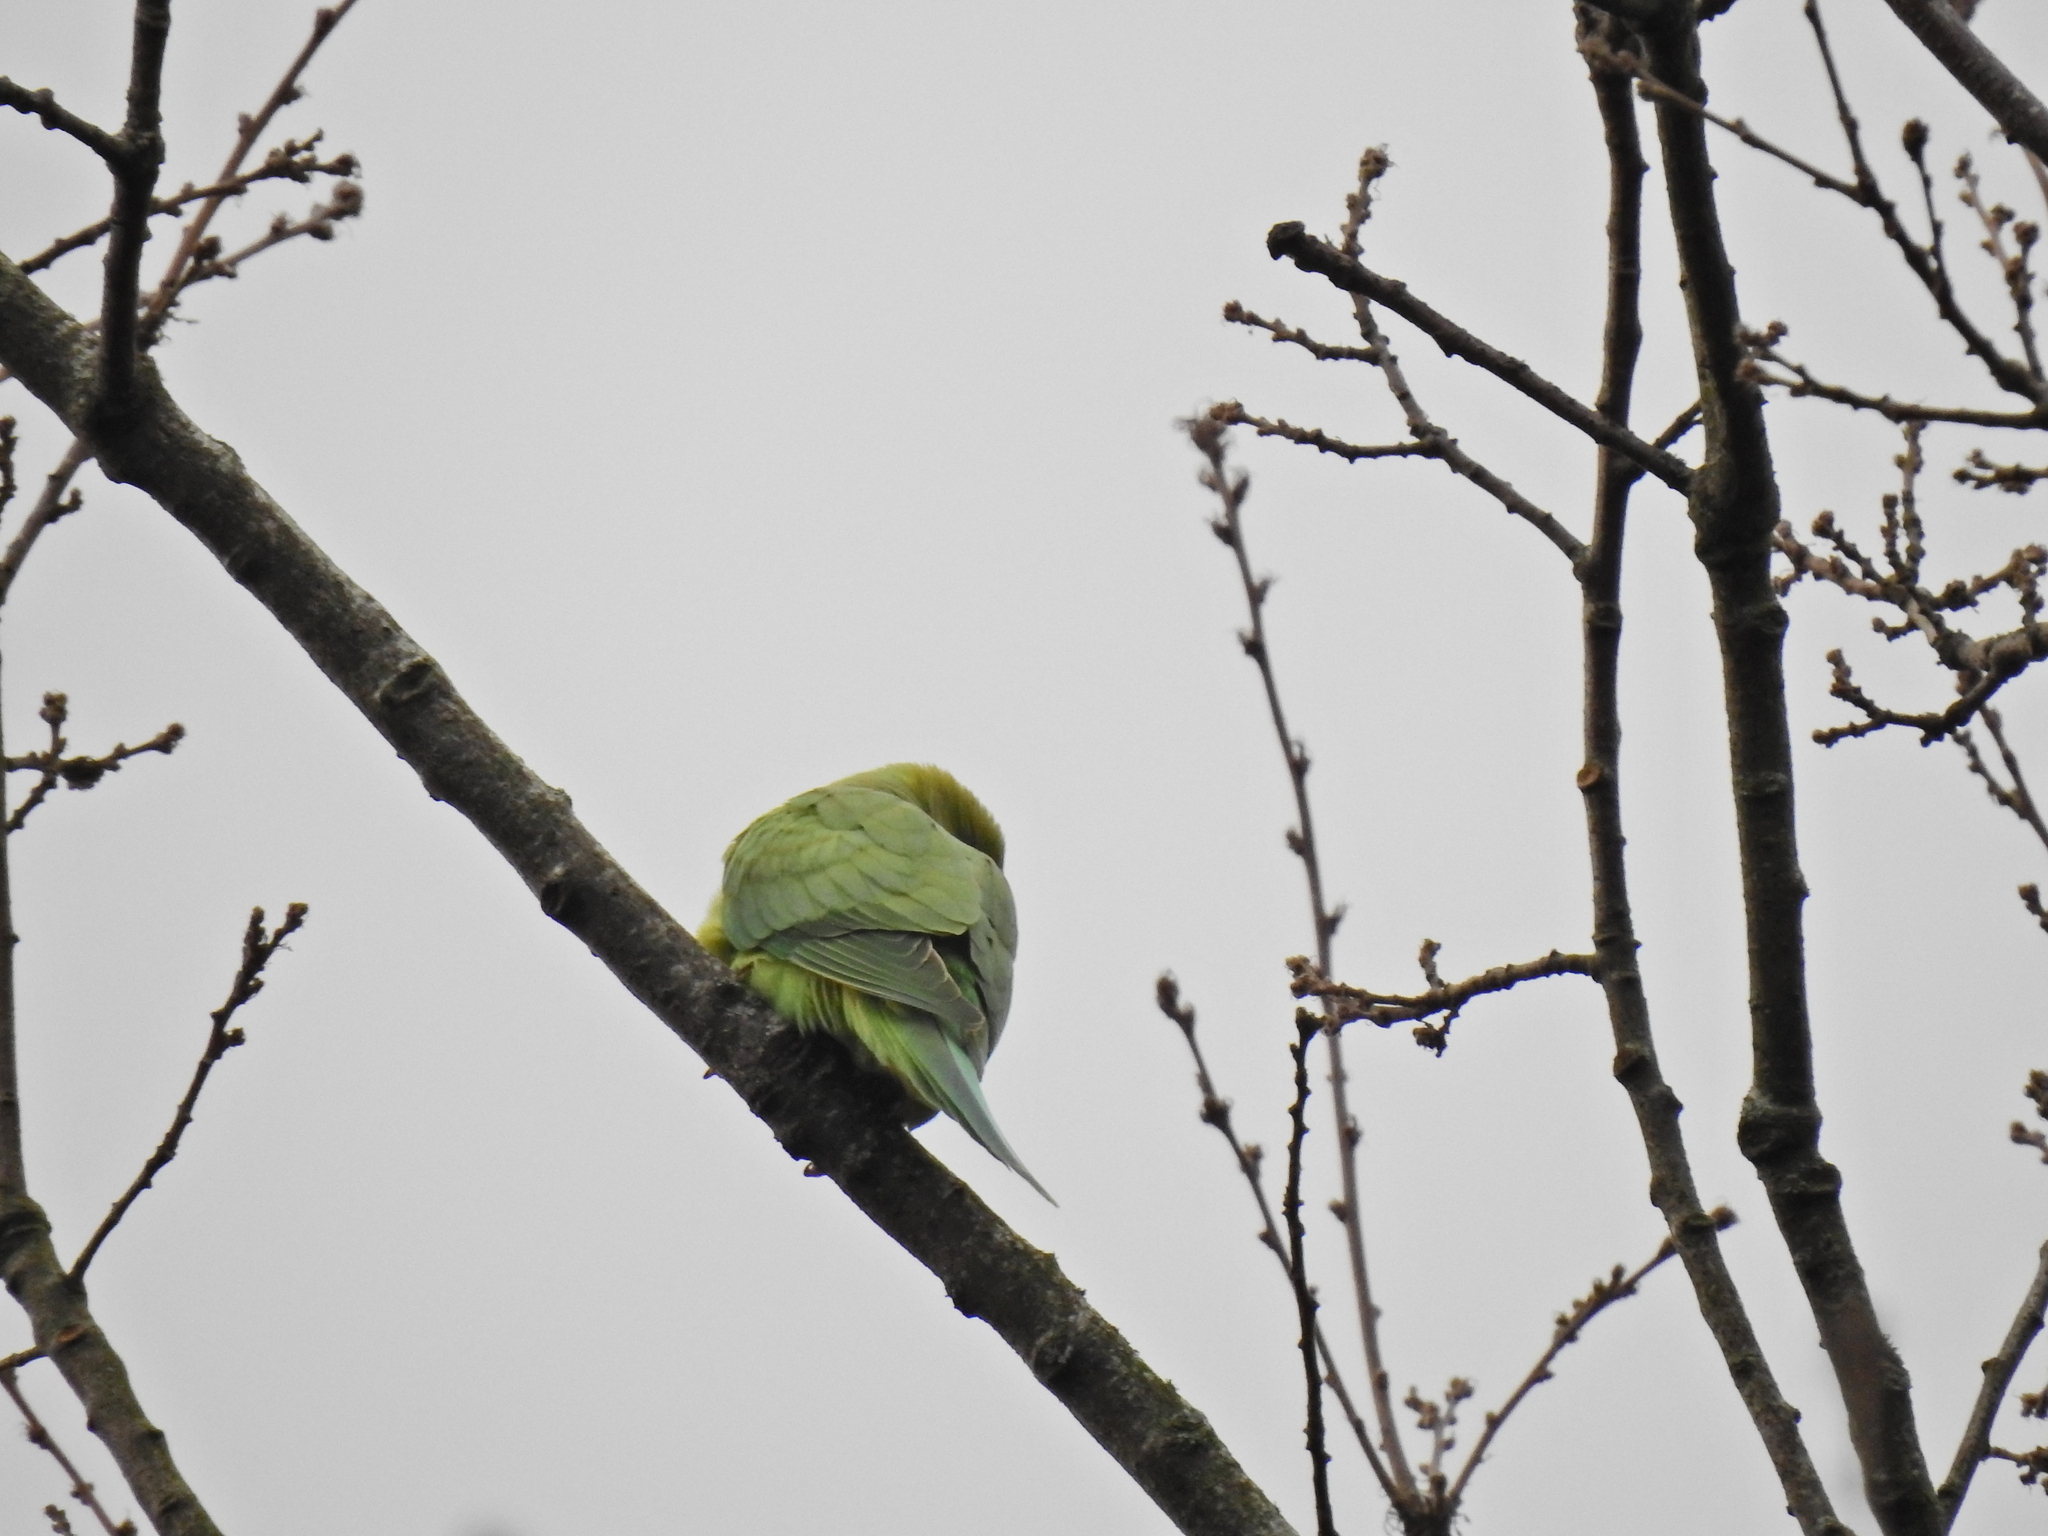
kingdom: Animalia
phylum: Chordata
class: Aves
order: Psittaciformes
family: Psittacidae
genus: Psittacula
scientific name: Psittacula krameri
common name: Rose-ringed parakeet
